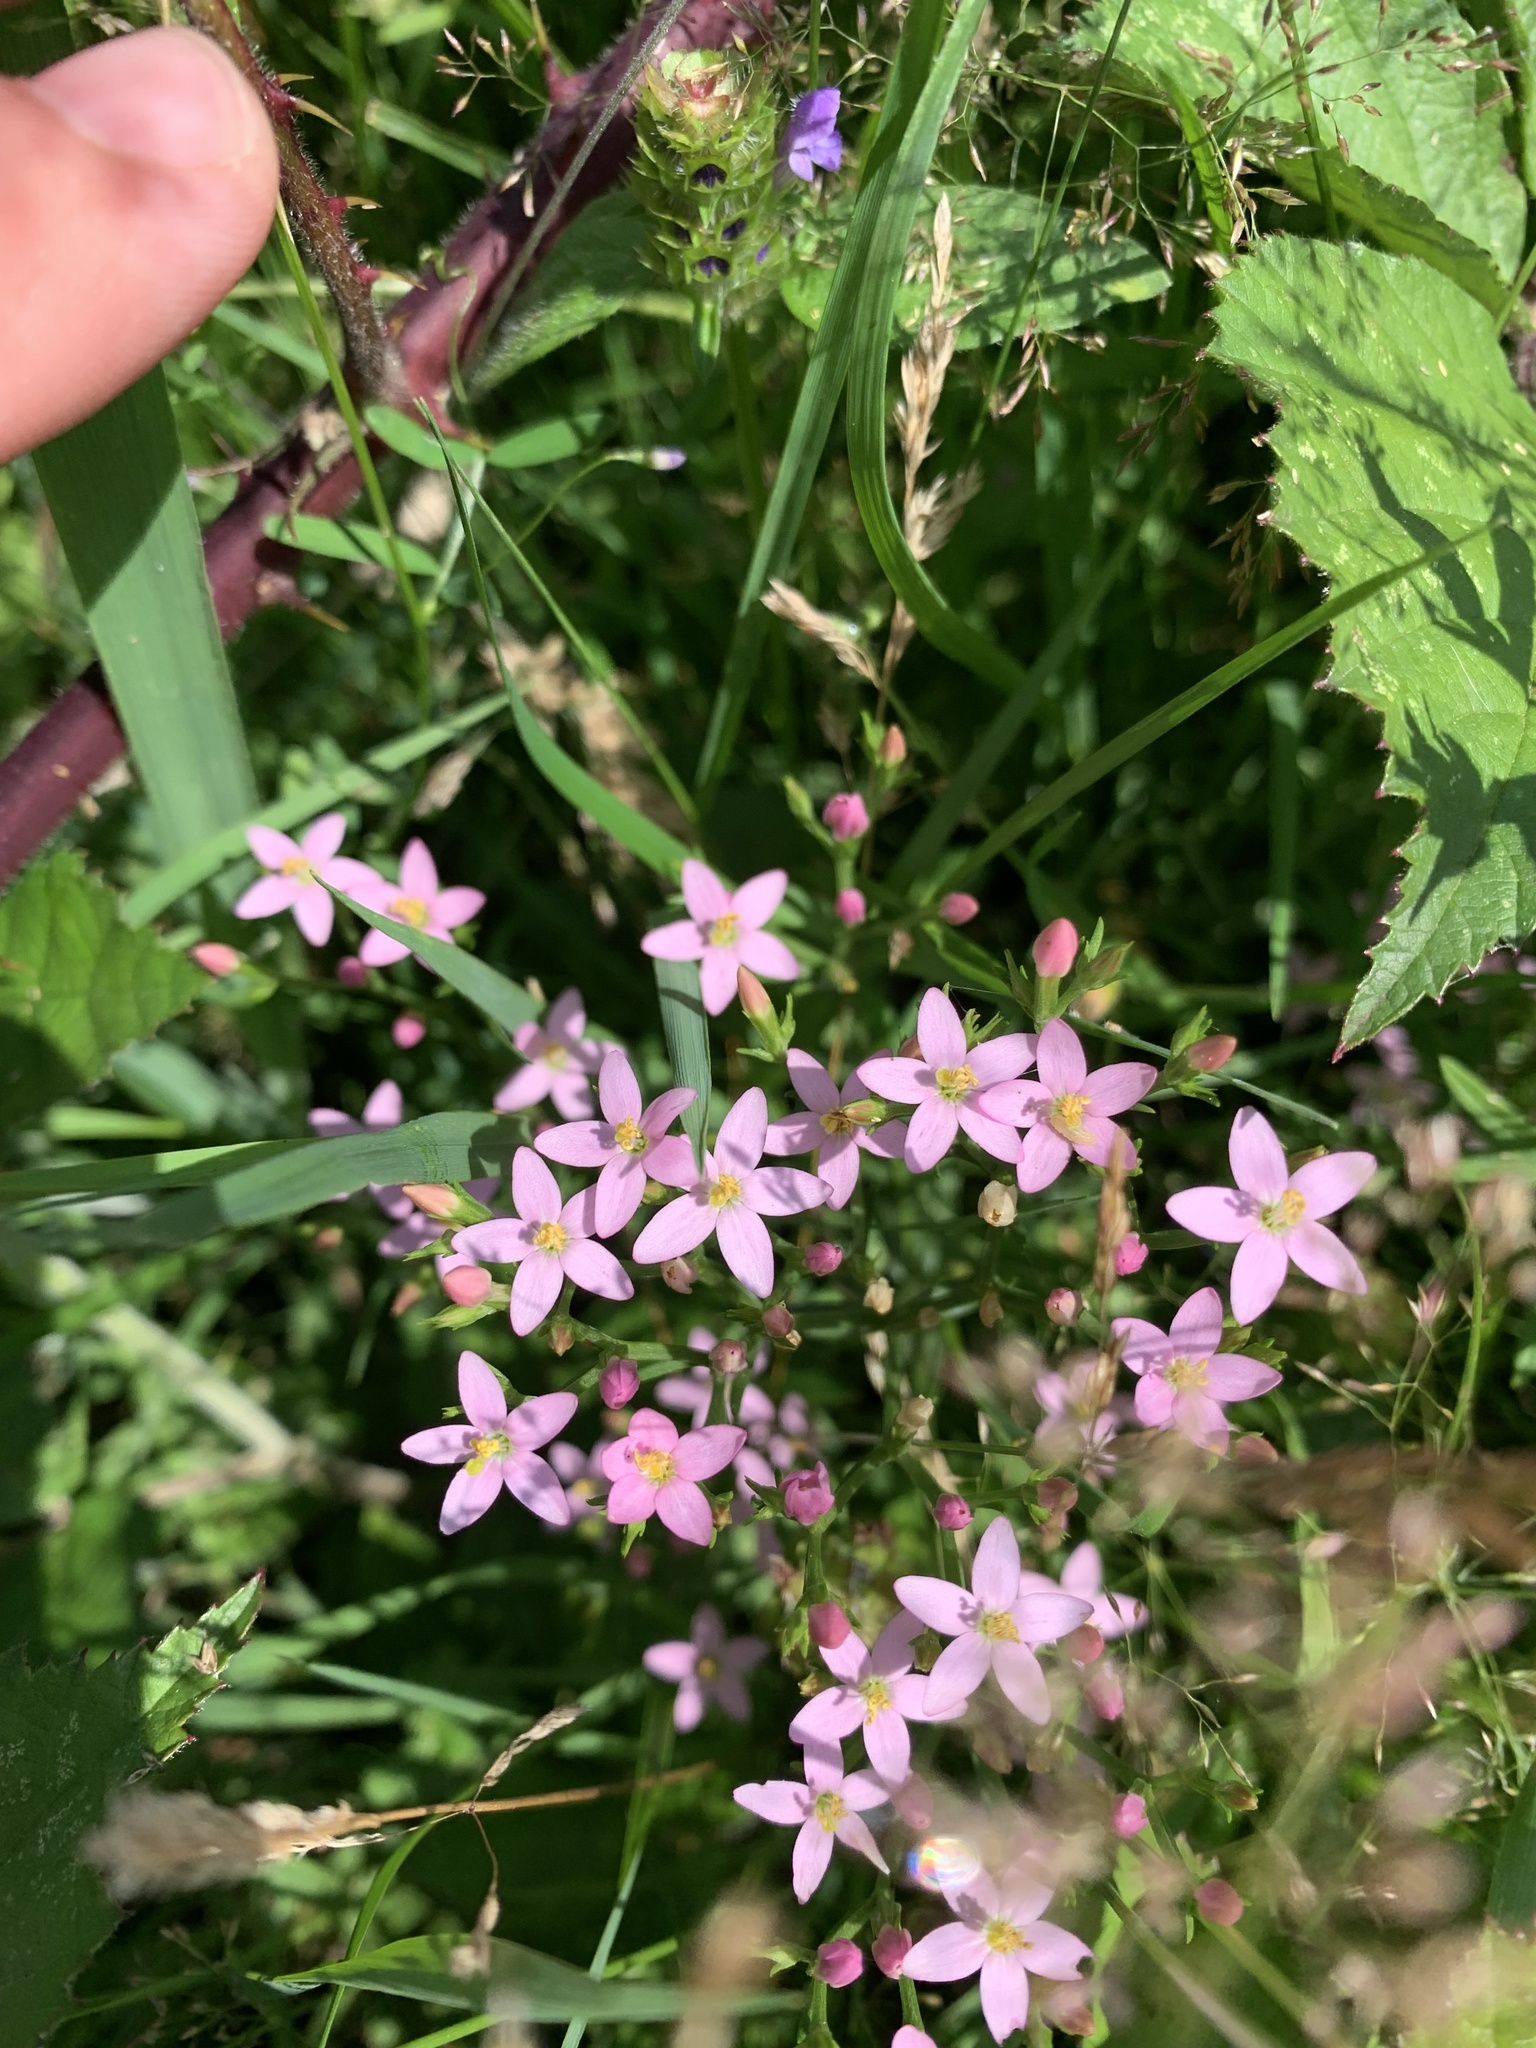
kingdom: Plantae
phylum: Tracheophyta
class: Magnoliopsida
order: Gentianales
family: Gentianaceae
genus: Centaurium
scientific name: Centaurium erythraea
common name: Common centaury
